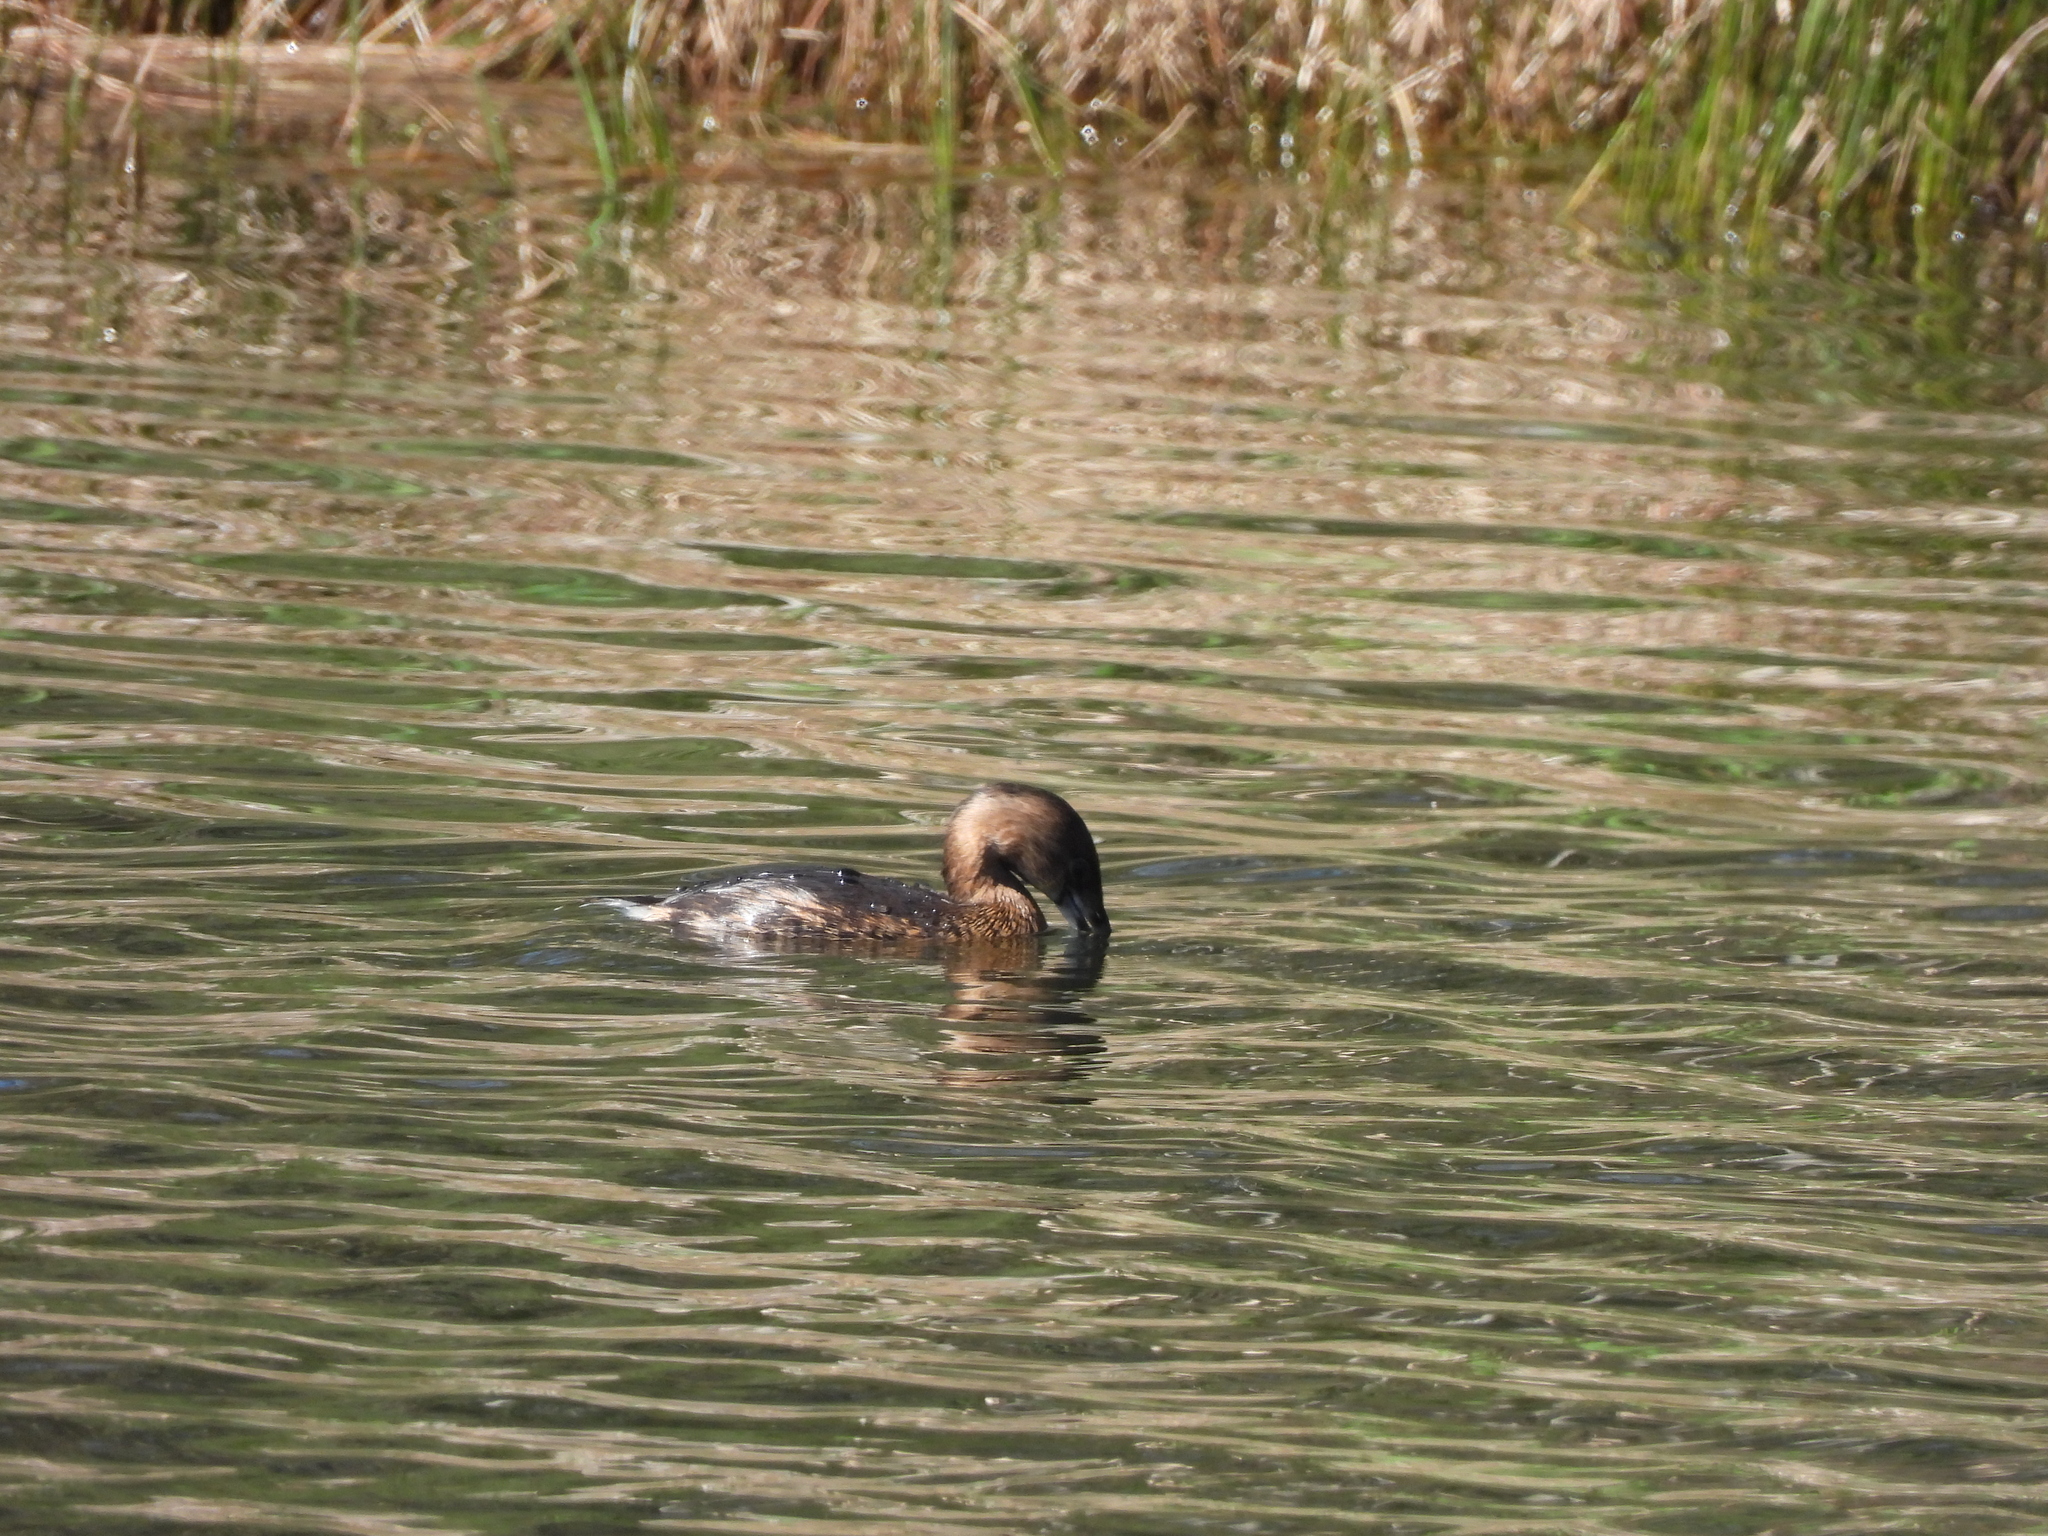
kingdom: Animalia
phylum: Chordata
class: Aves
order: Podicipediformes
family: Podicipedidae
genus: Podilymbus
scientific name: Podilymbus podiceps
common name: Pied-billed grebe
